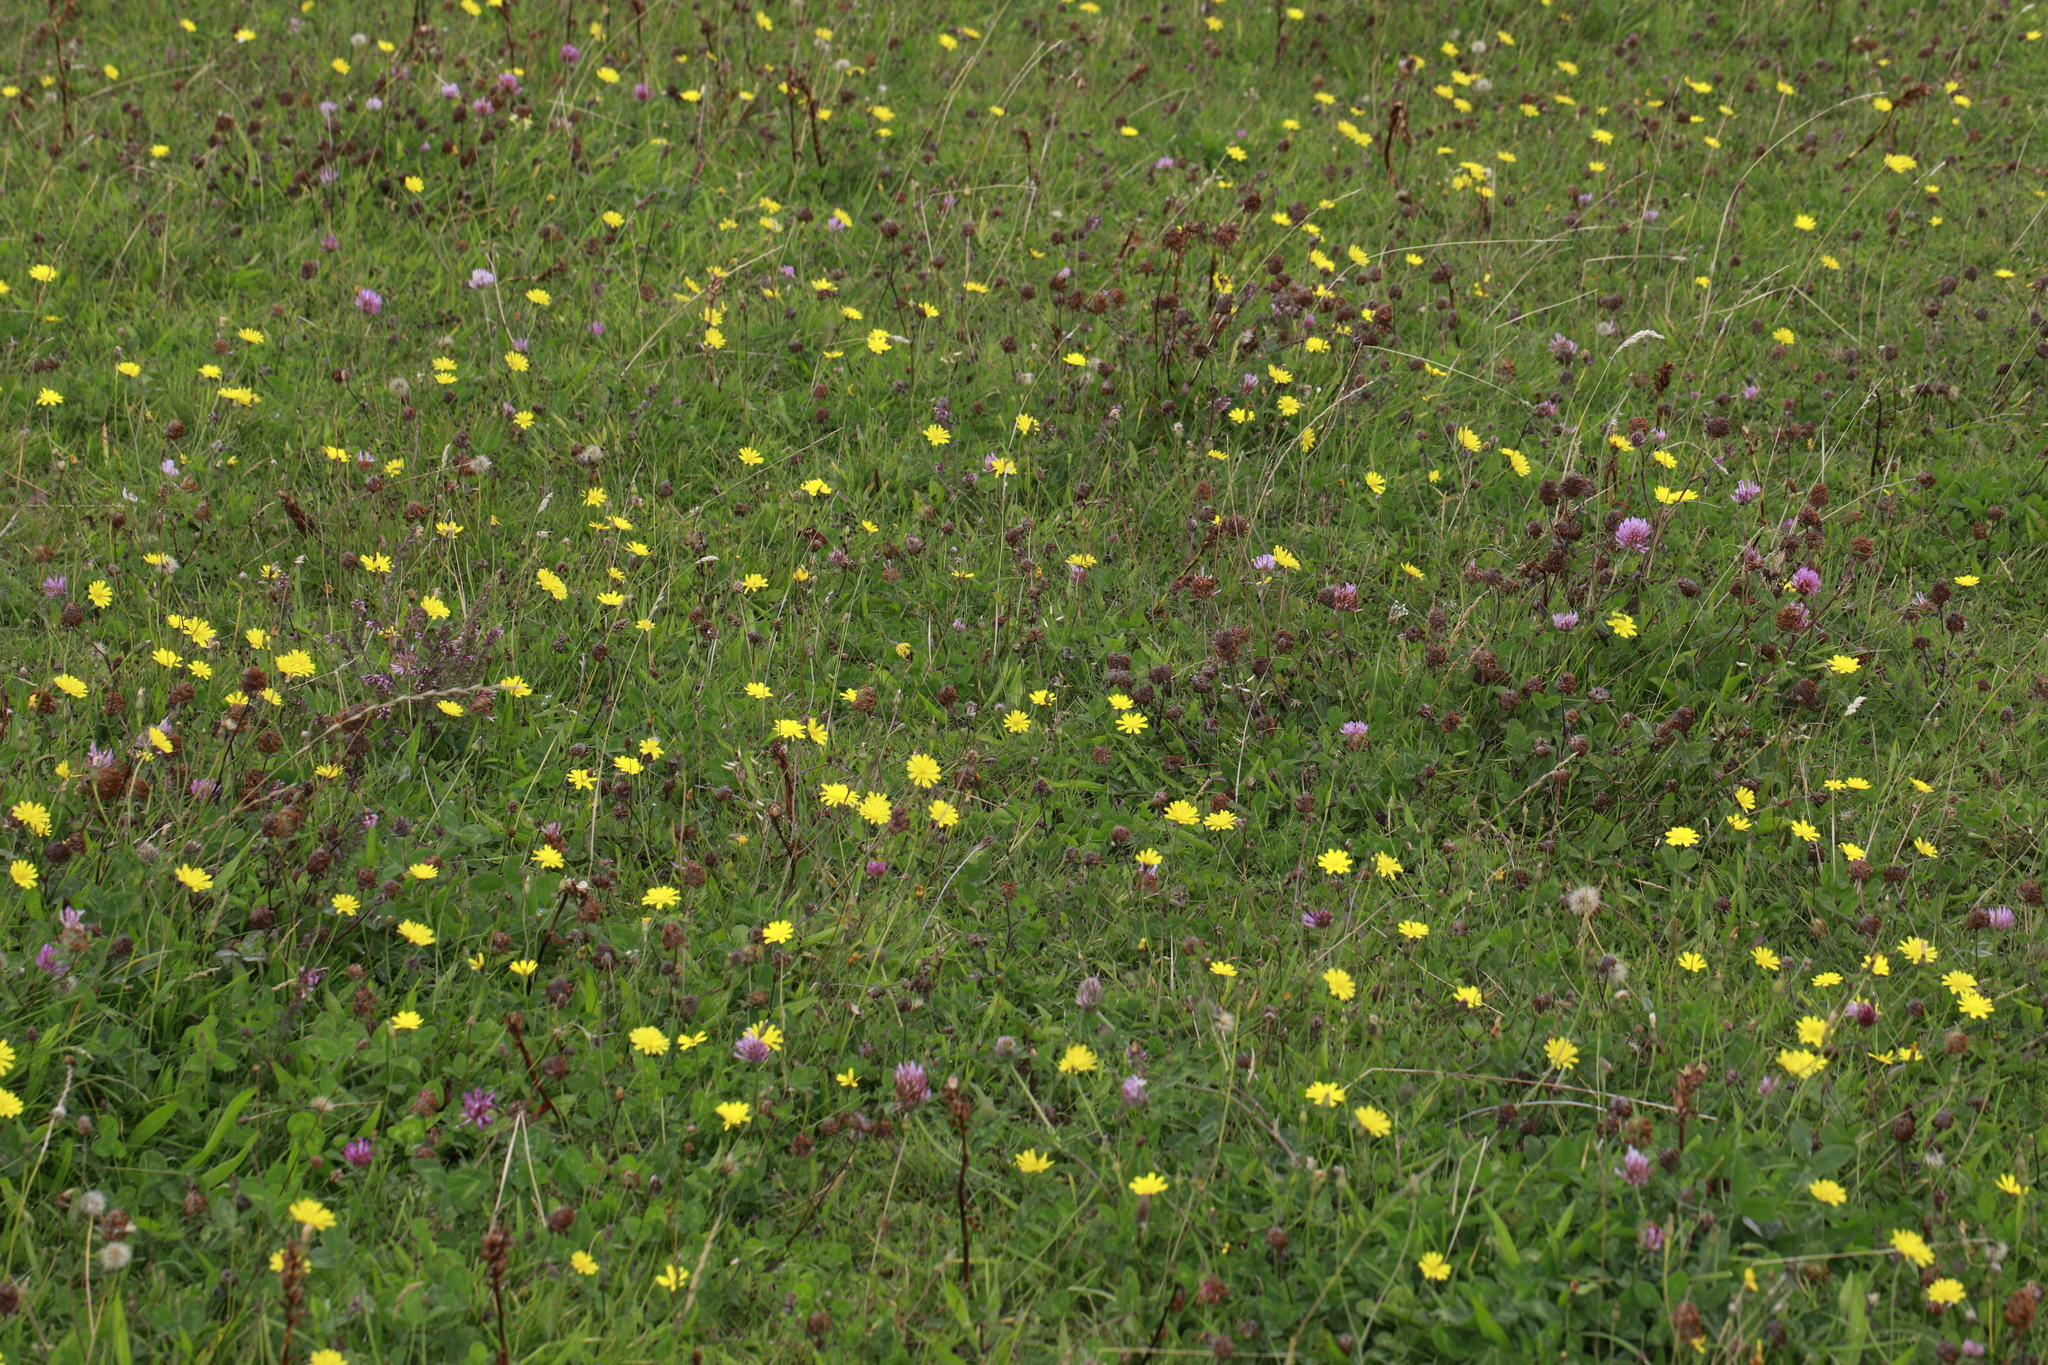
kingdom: Plantae
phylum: Tracheophyta
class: Magnoliopsida
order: Asterales
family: Asteraceae
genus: Hypochaeris
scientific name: Hypochaeris radicata
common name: Flatweed
